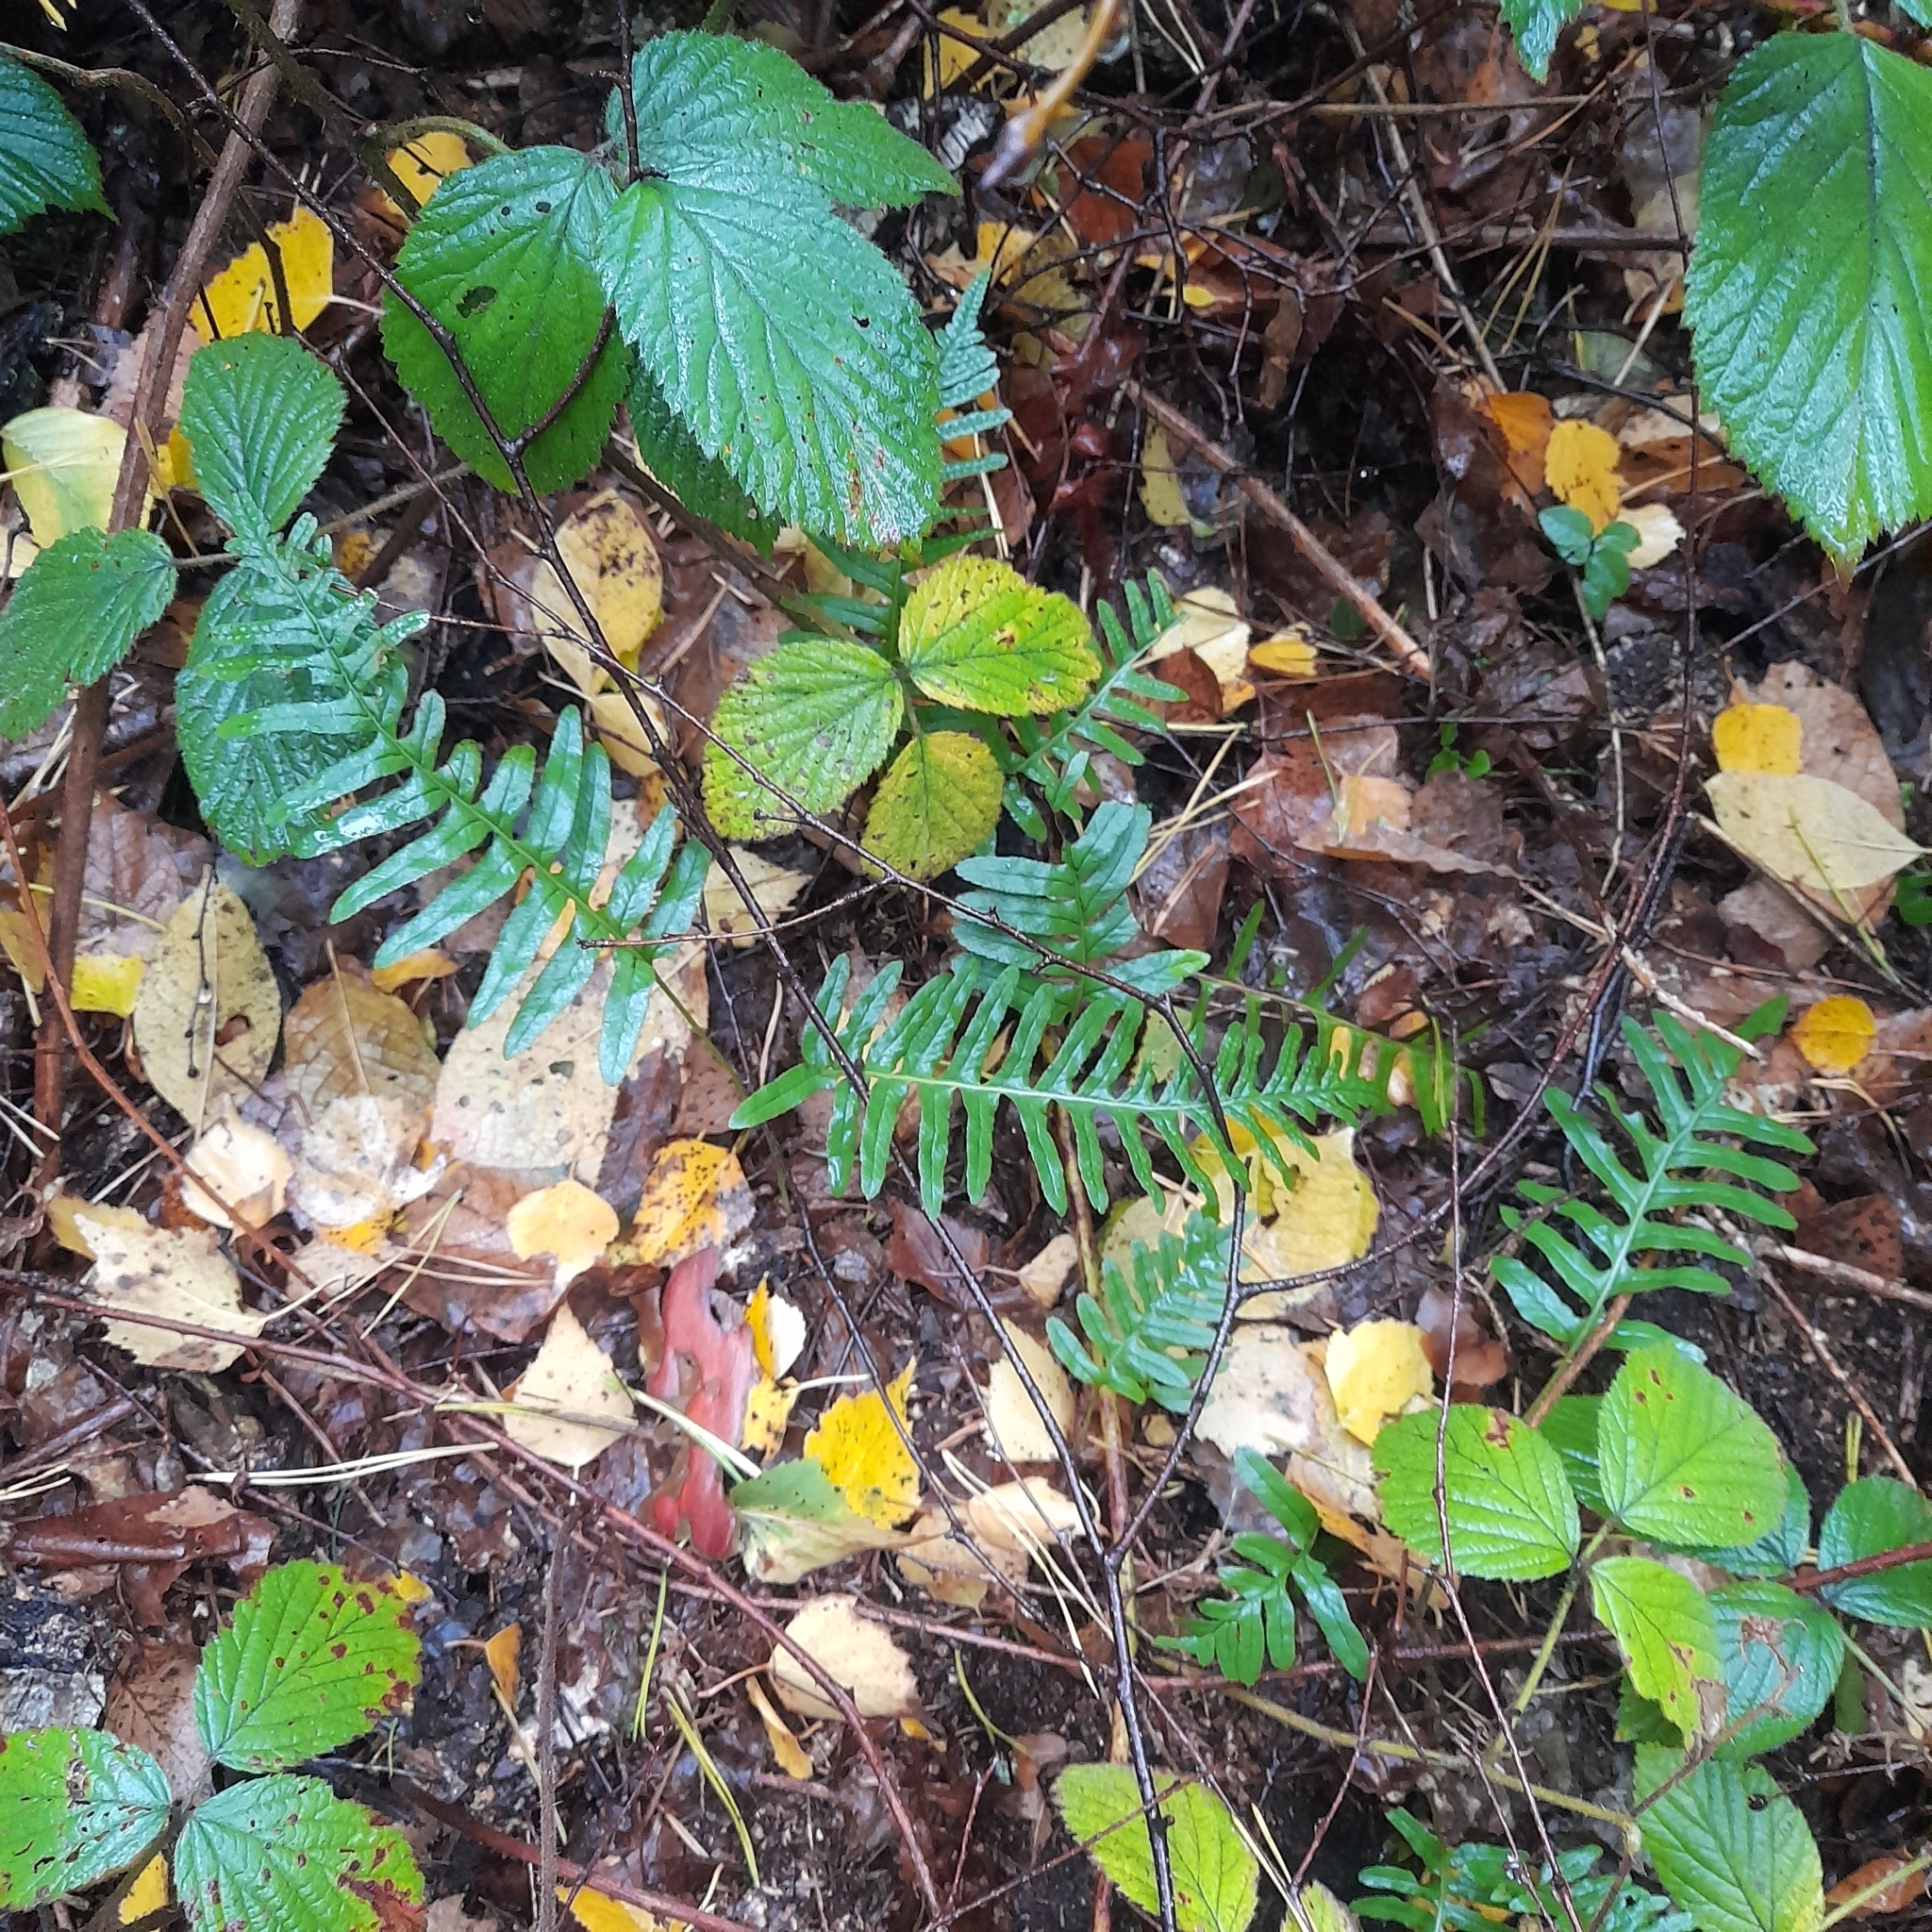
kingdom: Plantae
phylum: Tracheophyta
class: Polypodiopsida
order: Polypodiales
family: Polypodiaceae
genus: Polypodium
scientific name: Polypodium vulgare
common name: Common polypody
